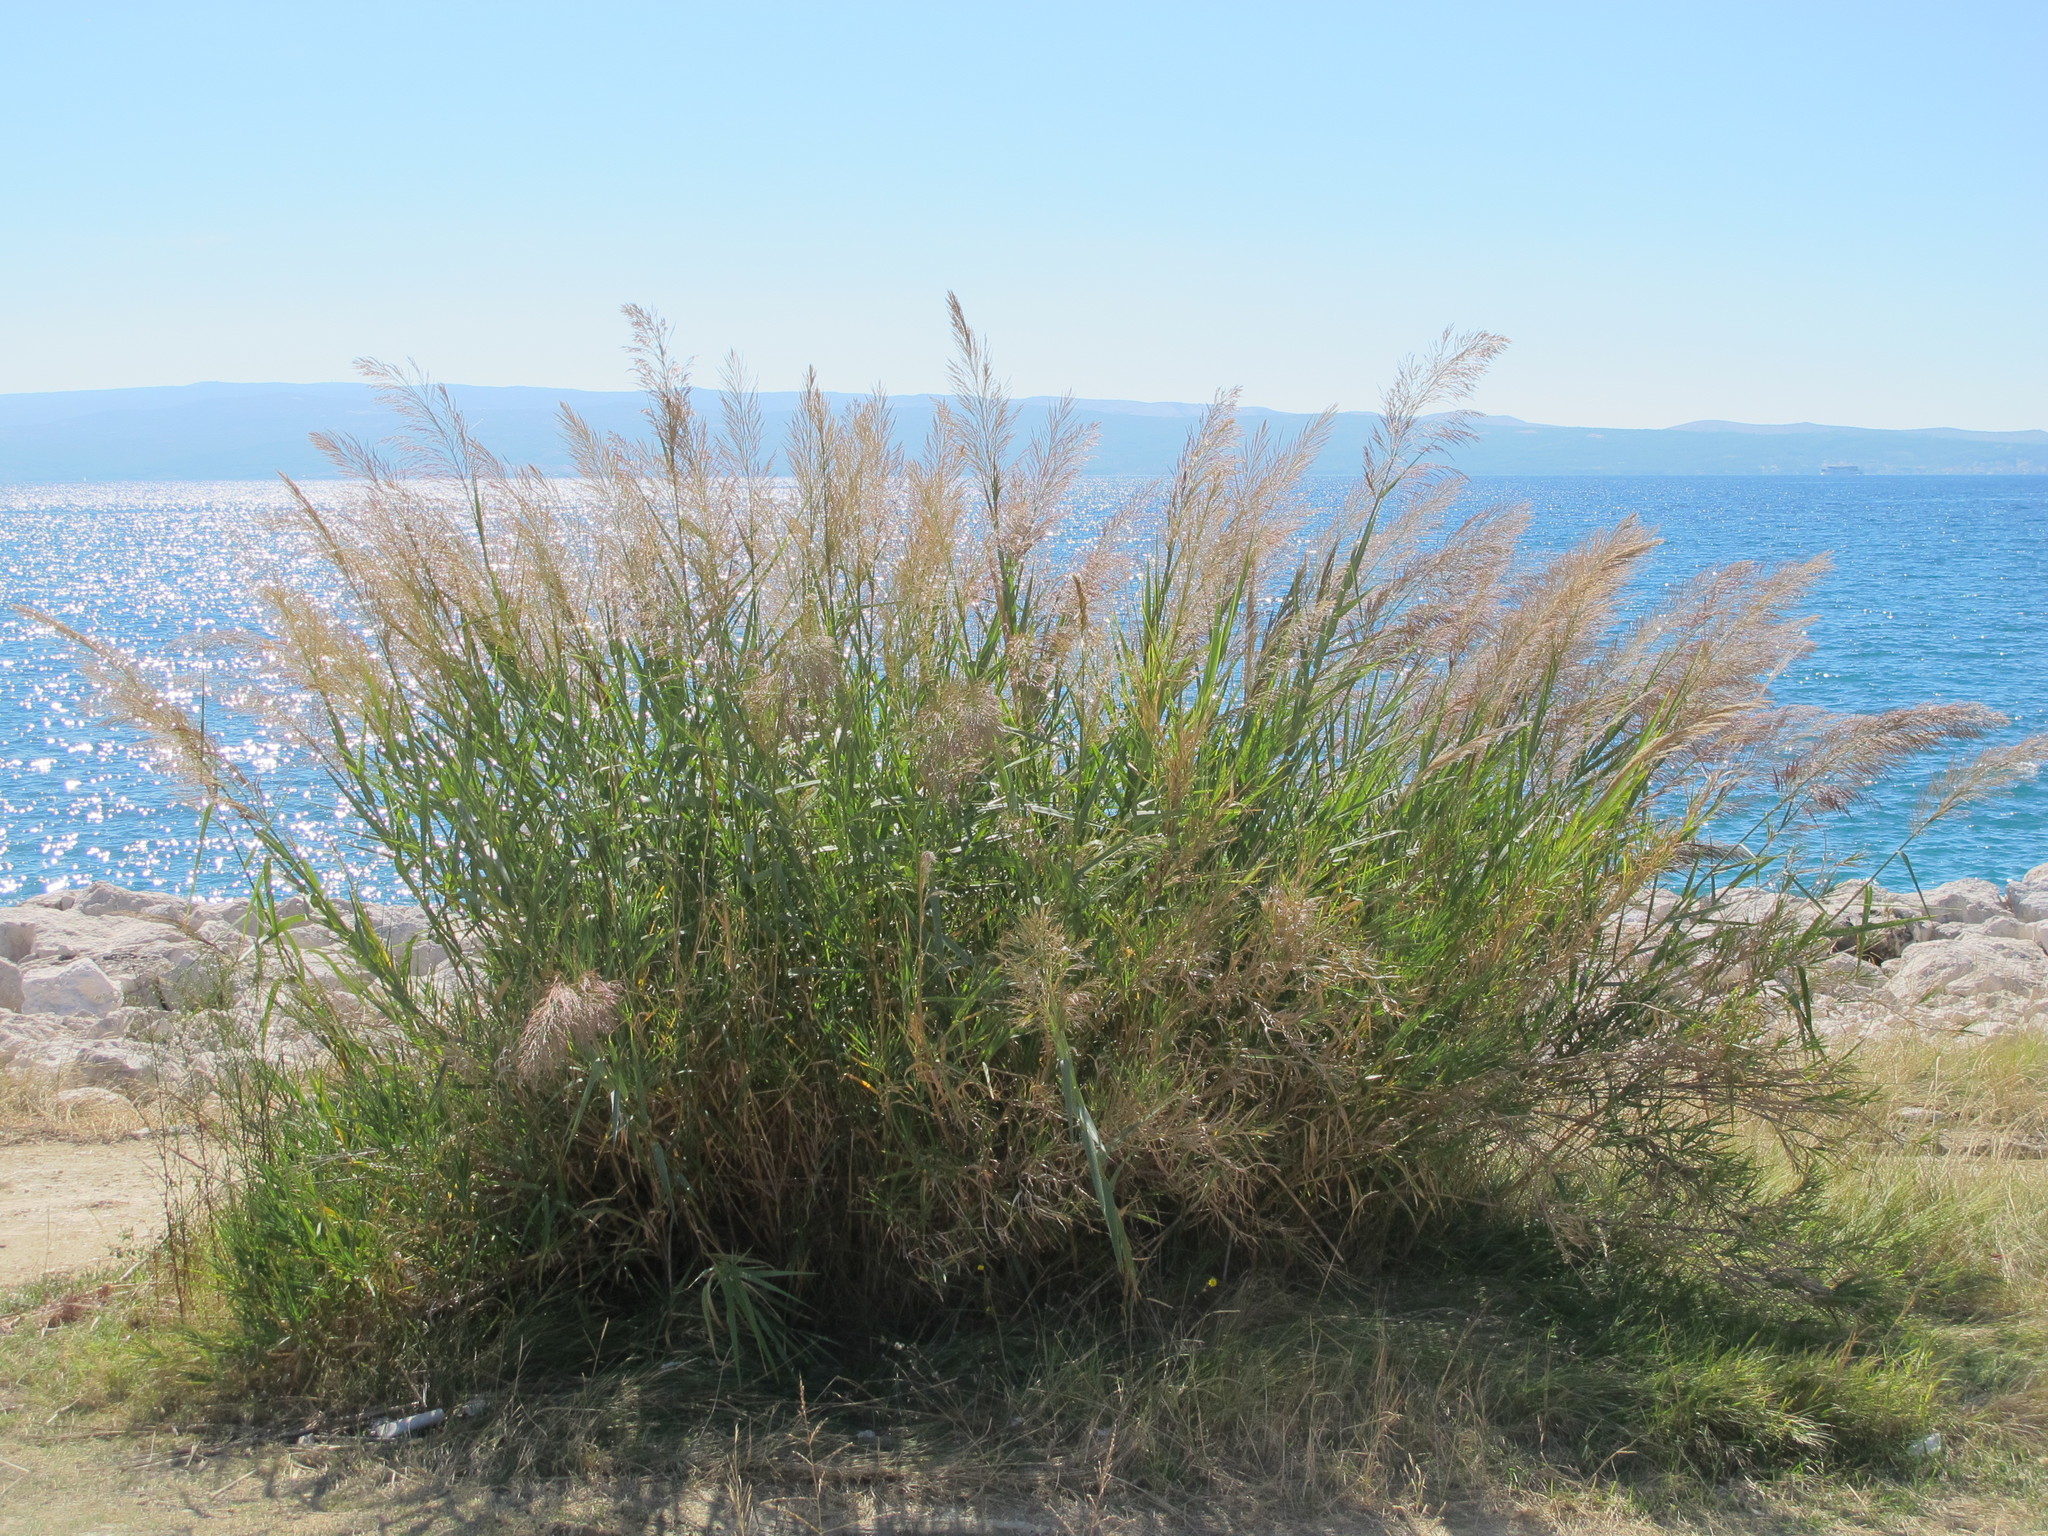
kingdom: Plantae
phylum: Tracheophyta
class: Liliopsida
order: Poales
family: Poaceae
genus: Arundo
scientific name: Arundo plinii
